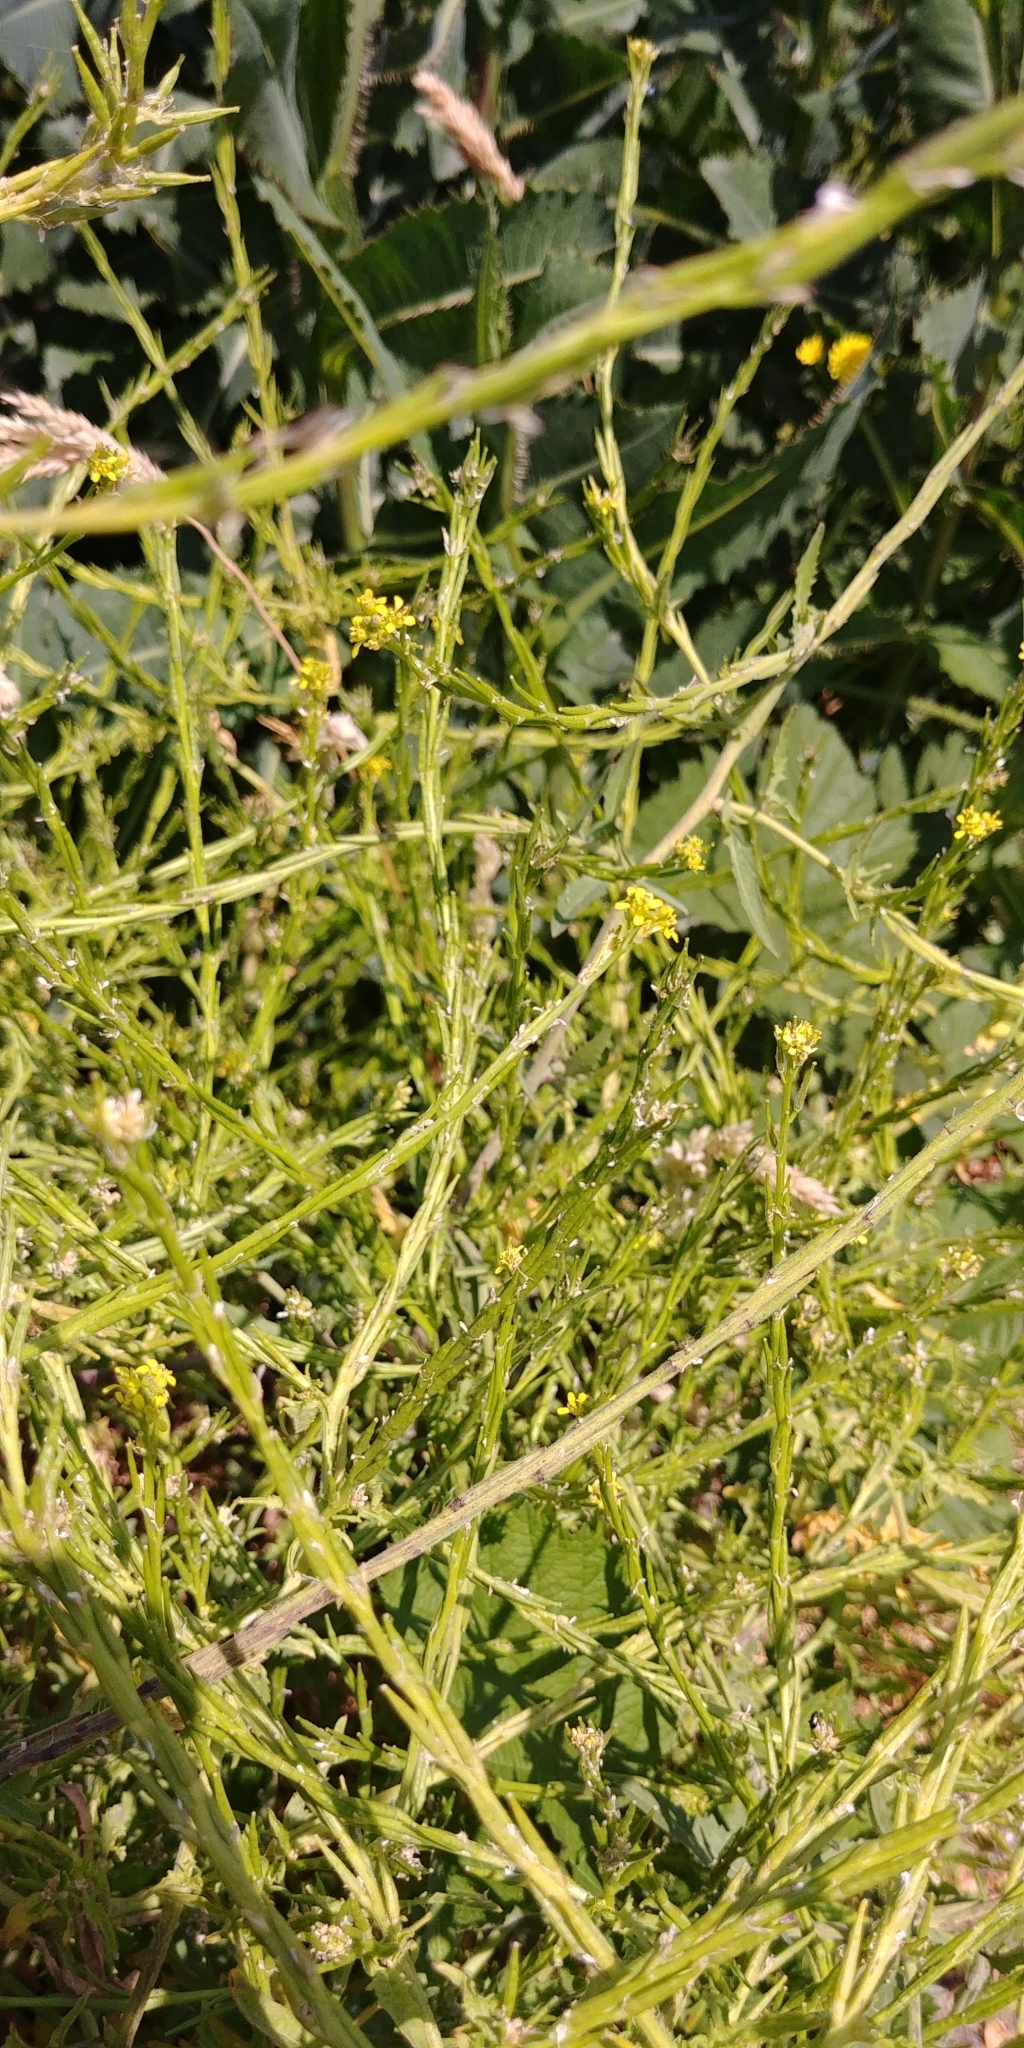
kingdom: Plantae
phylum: Tracheophyta
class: Magnoliopsida
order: Brassicales
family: Brassicaceae
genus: Sisymbrium
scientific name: Sisymbrium officinale
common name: Hedge mustard
